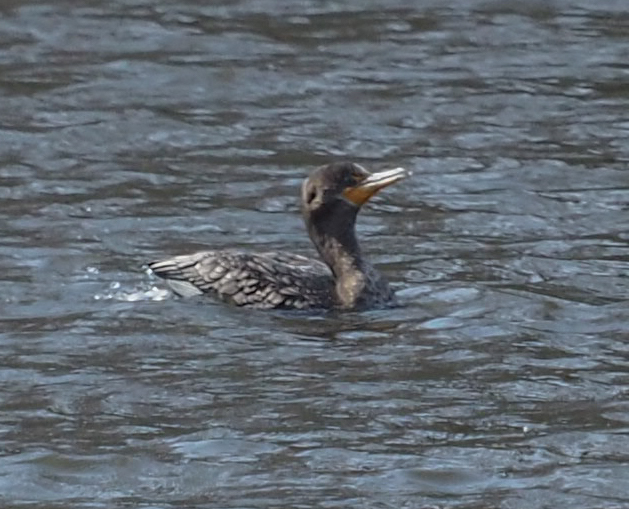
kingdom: Animalia
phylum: Chordata
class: Aves
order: Suliformes
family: Phalacrocoracidae
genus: Phalacrocorax
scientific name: Phalacrocorax auritus
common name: Double-crested cormorant
